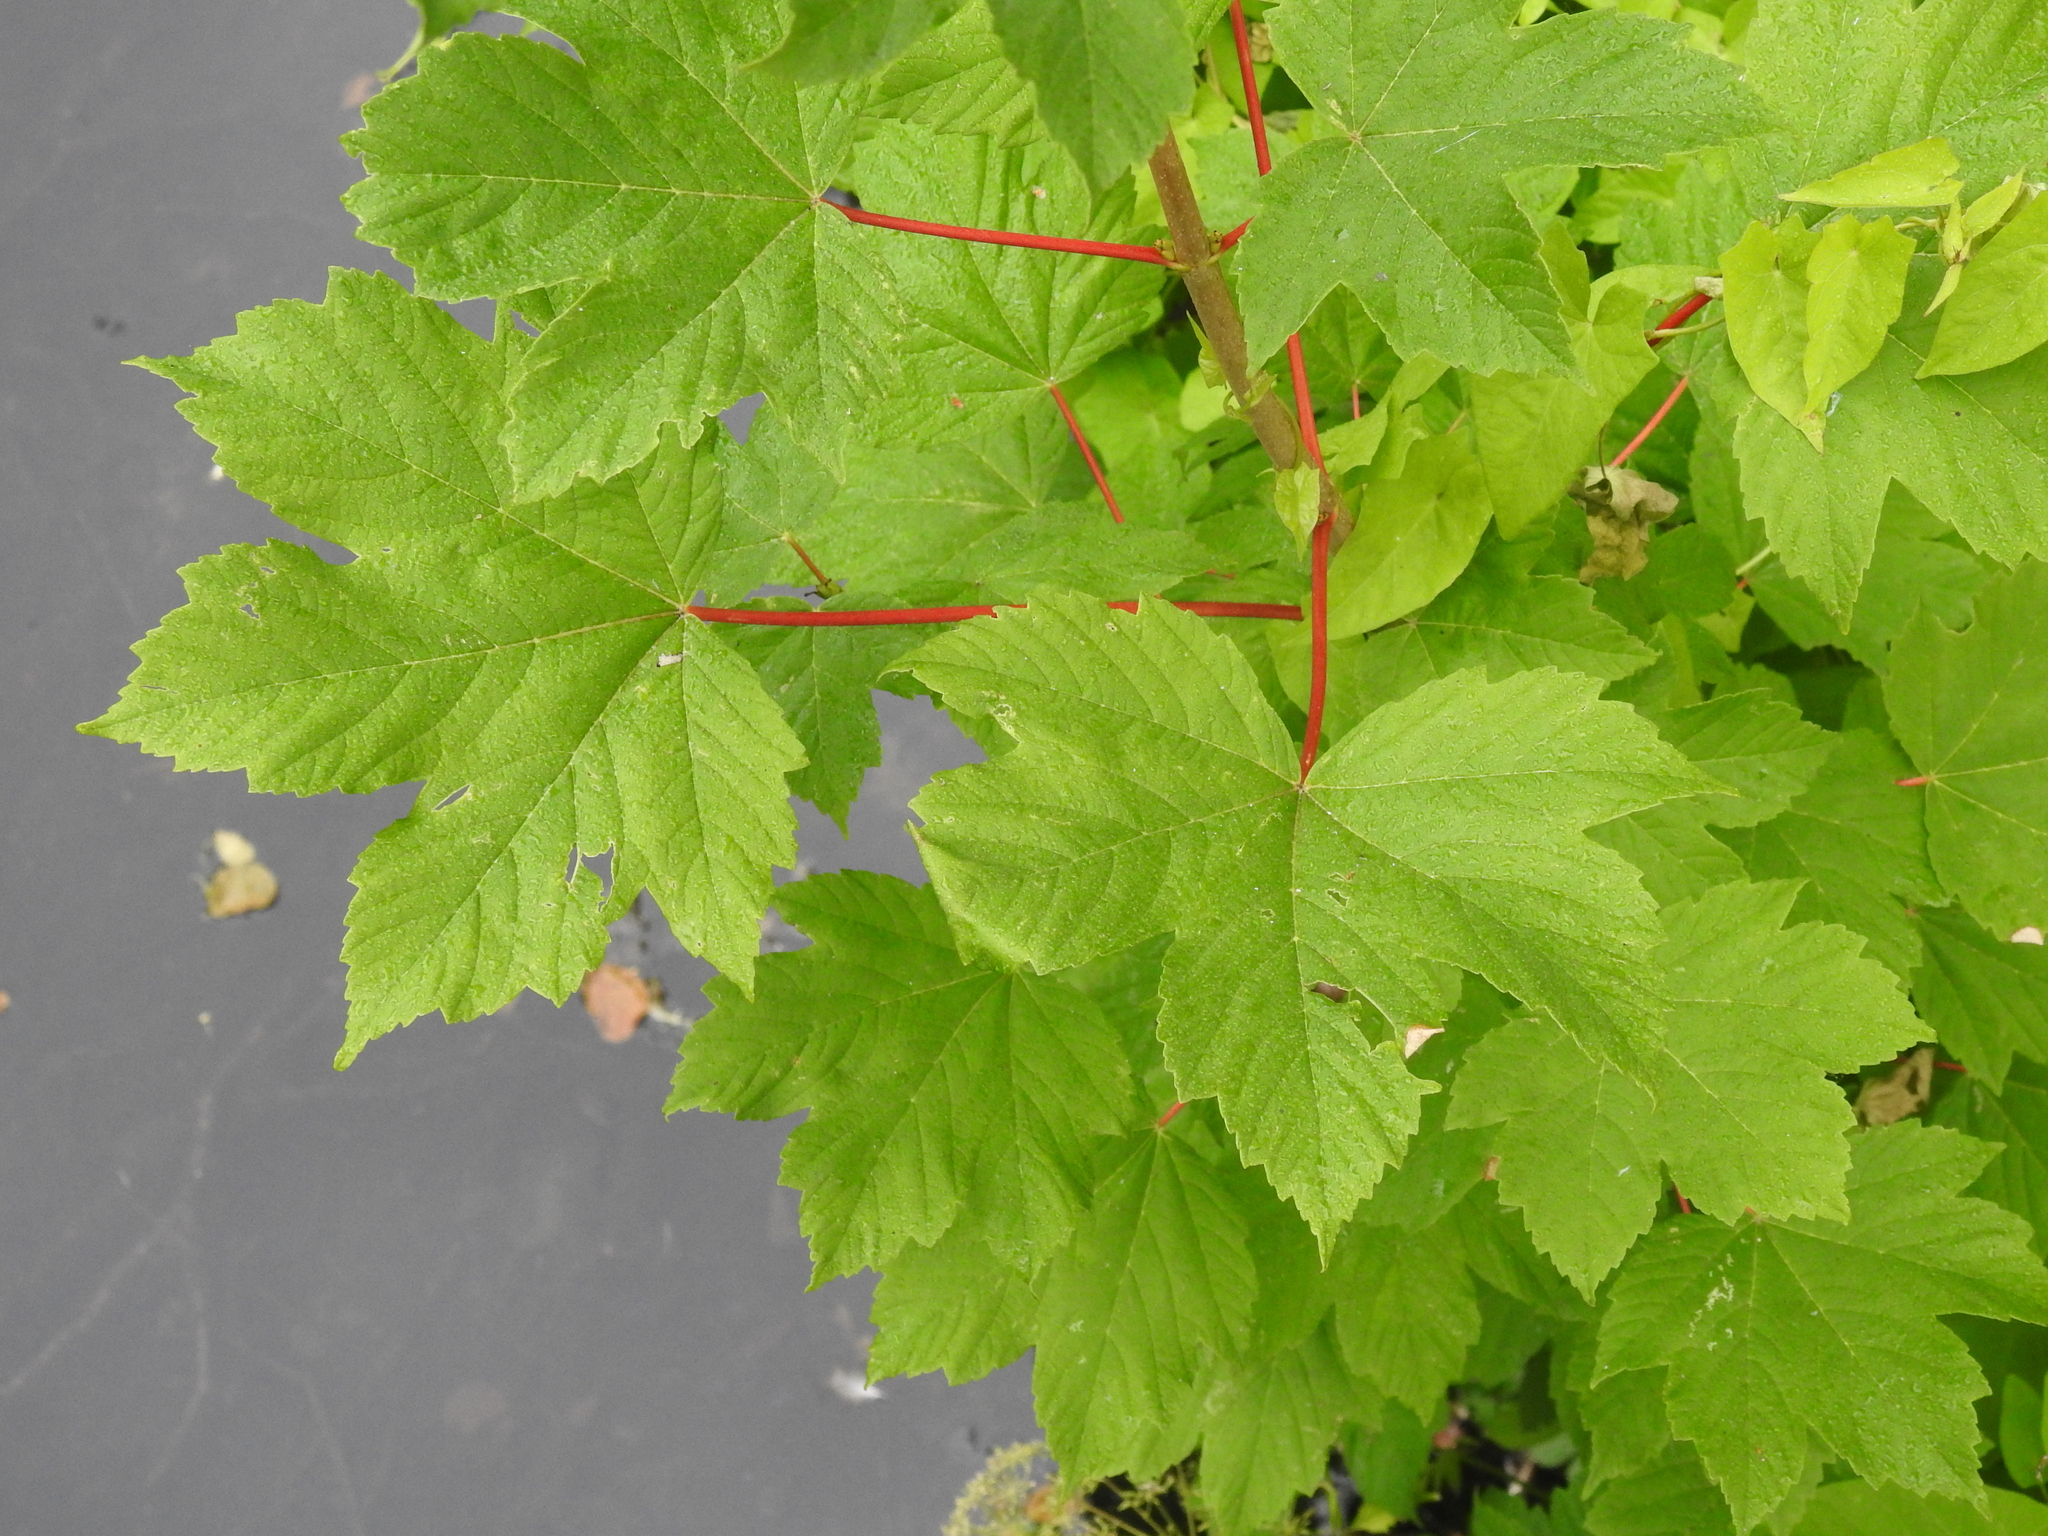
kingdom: Plantae
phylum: Tracheophyta
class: Magnoliopsida
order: Sapindales
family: Sapindaceae
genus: Acer
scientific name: Acer pseudoplatanus
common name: Sycamore
